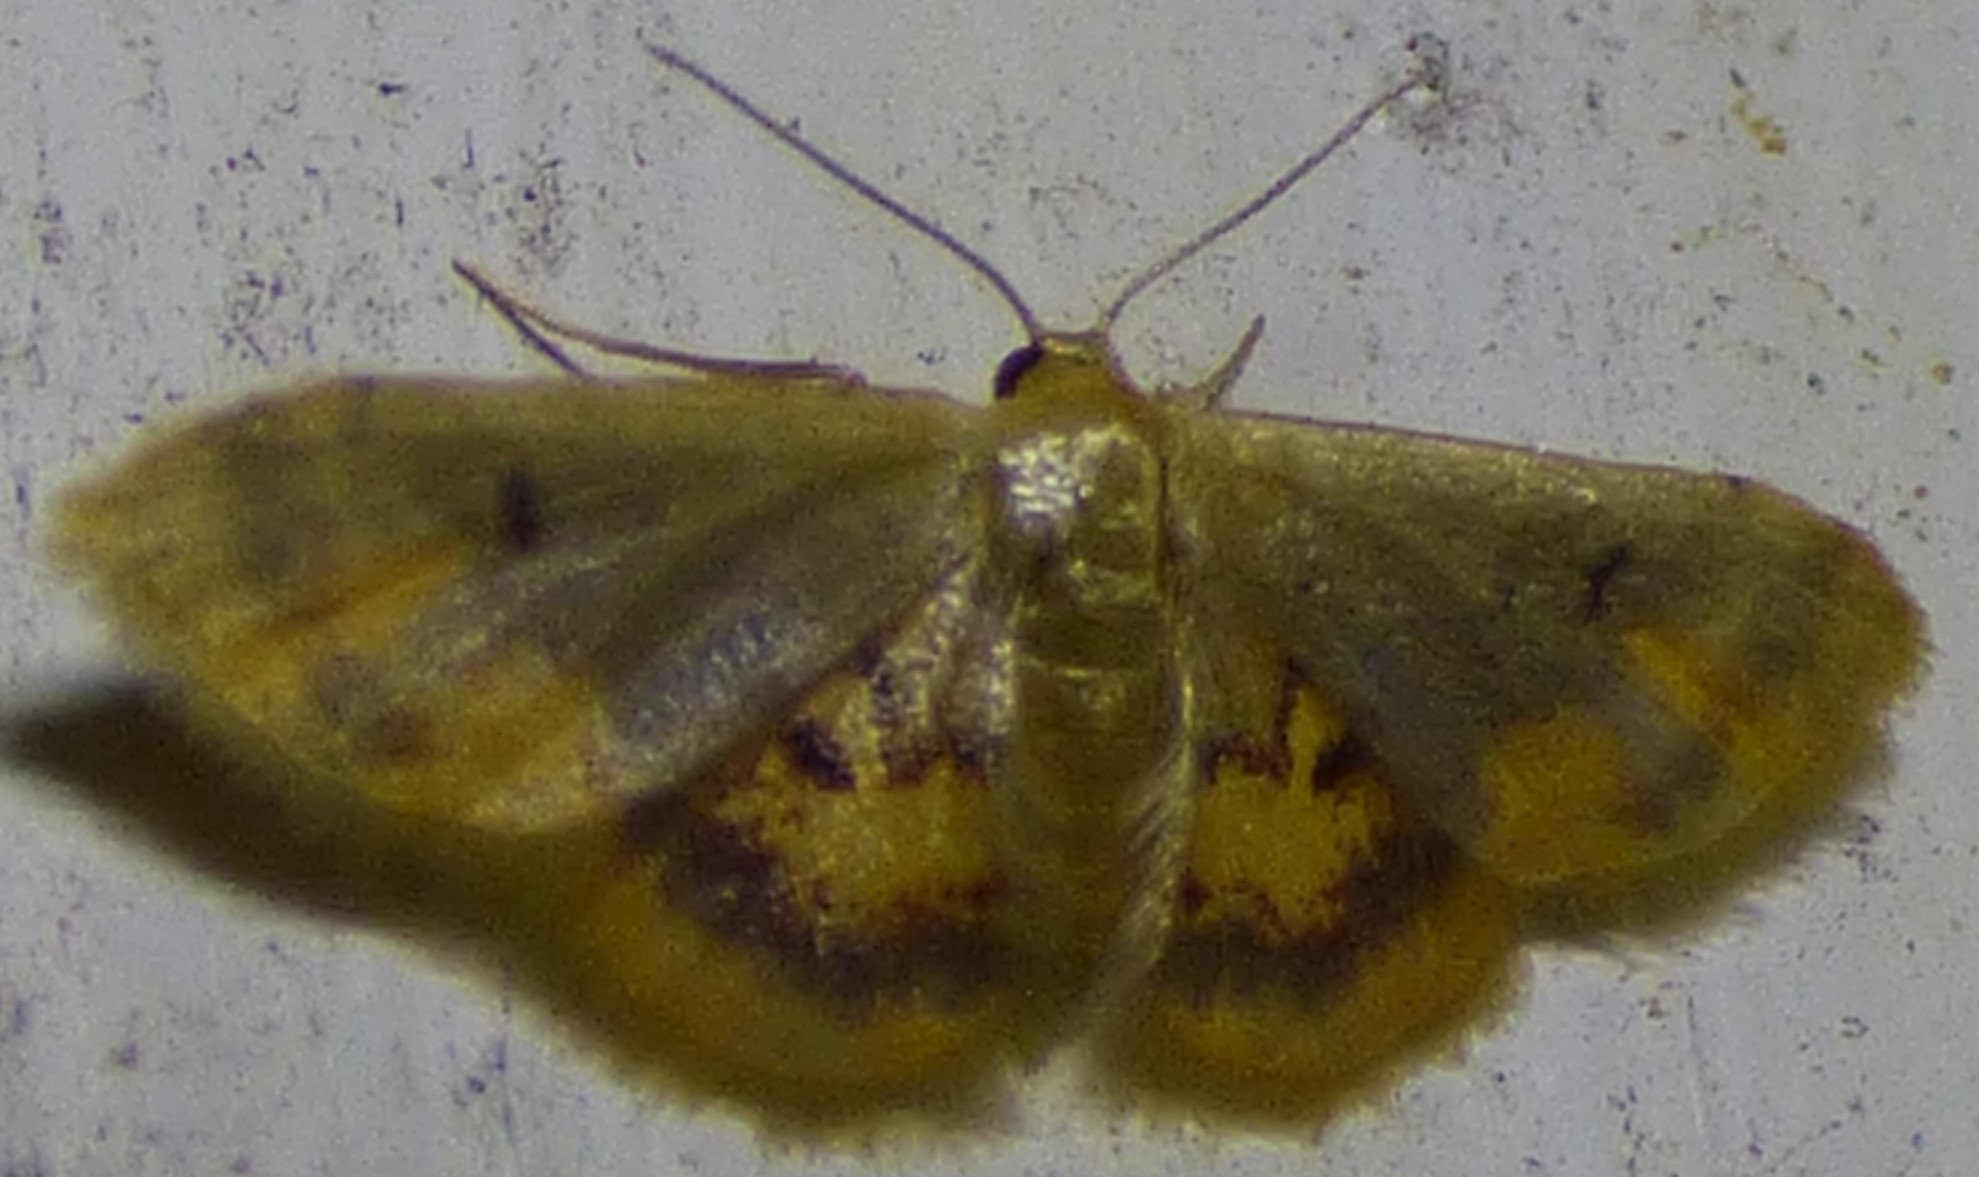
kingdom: Animalia
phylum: Arthropoda
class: Insecta
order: Lepidoptera
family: Geometridae
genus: Idaea
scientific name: Idaea scintillularia
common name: Diminutive wave
